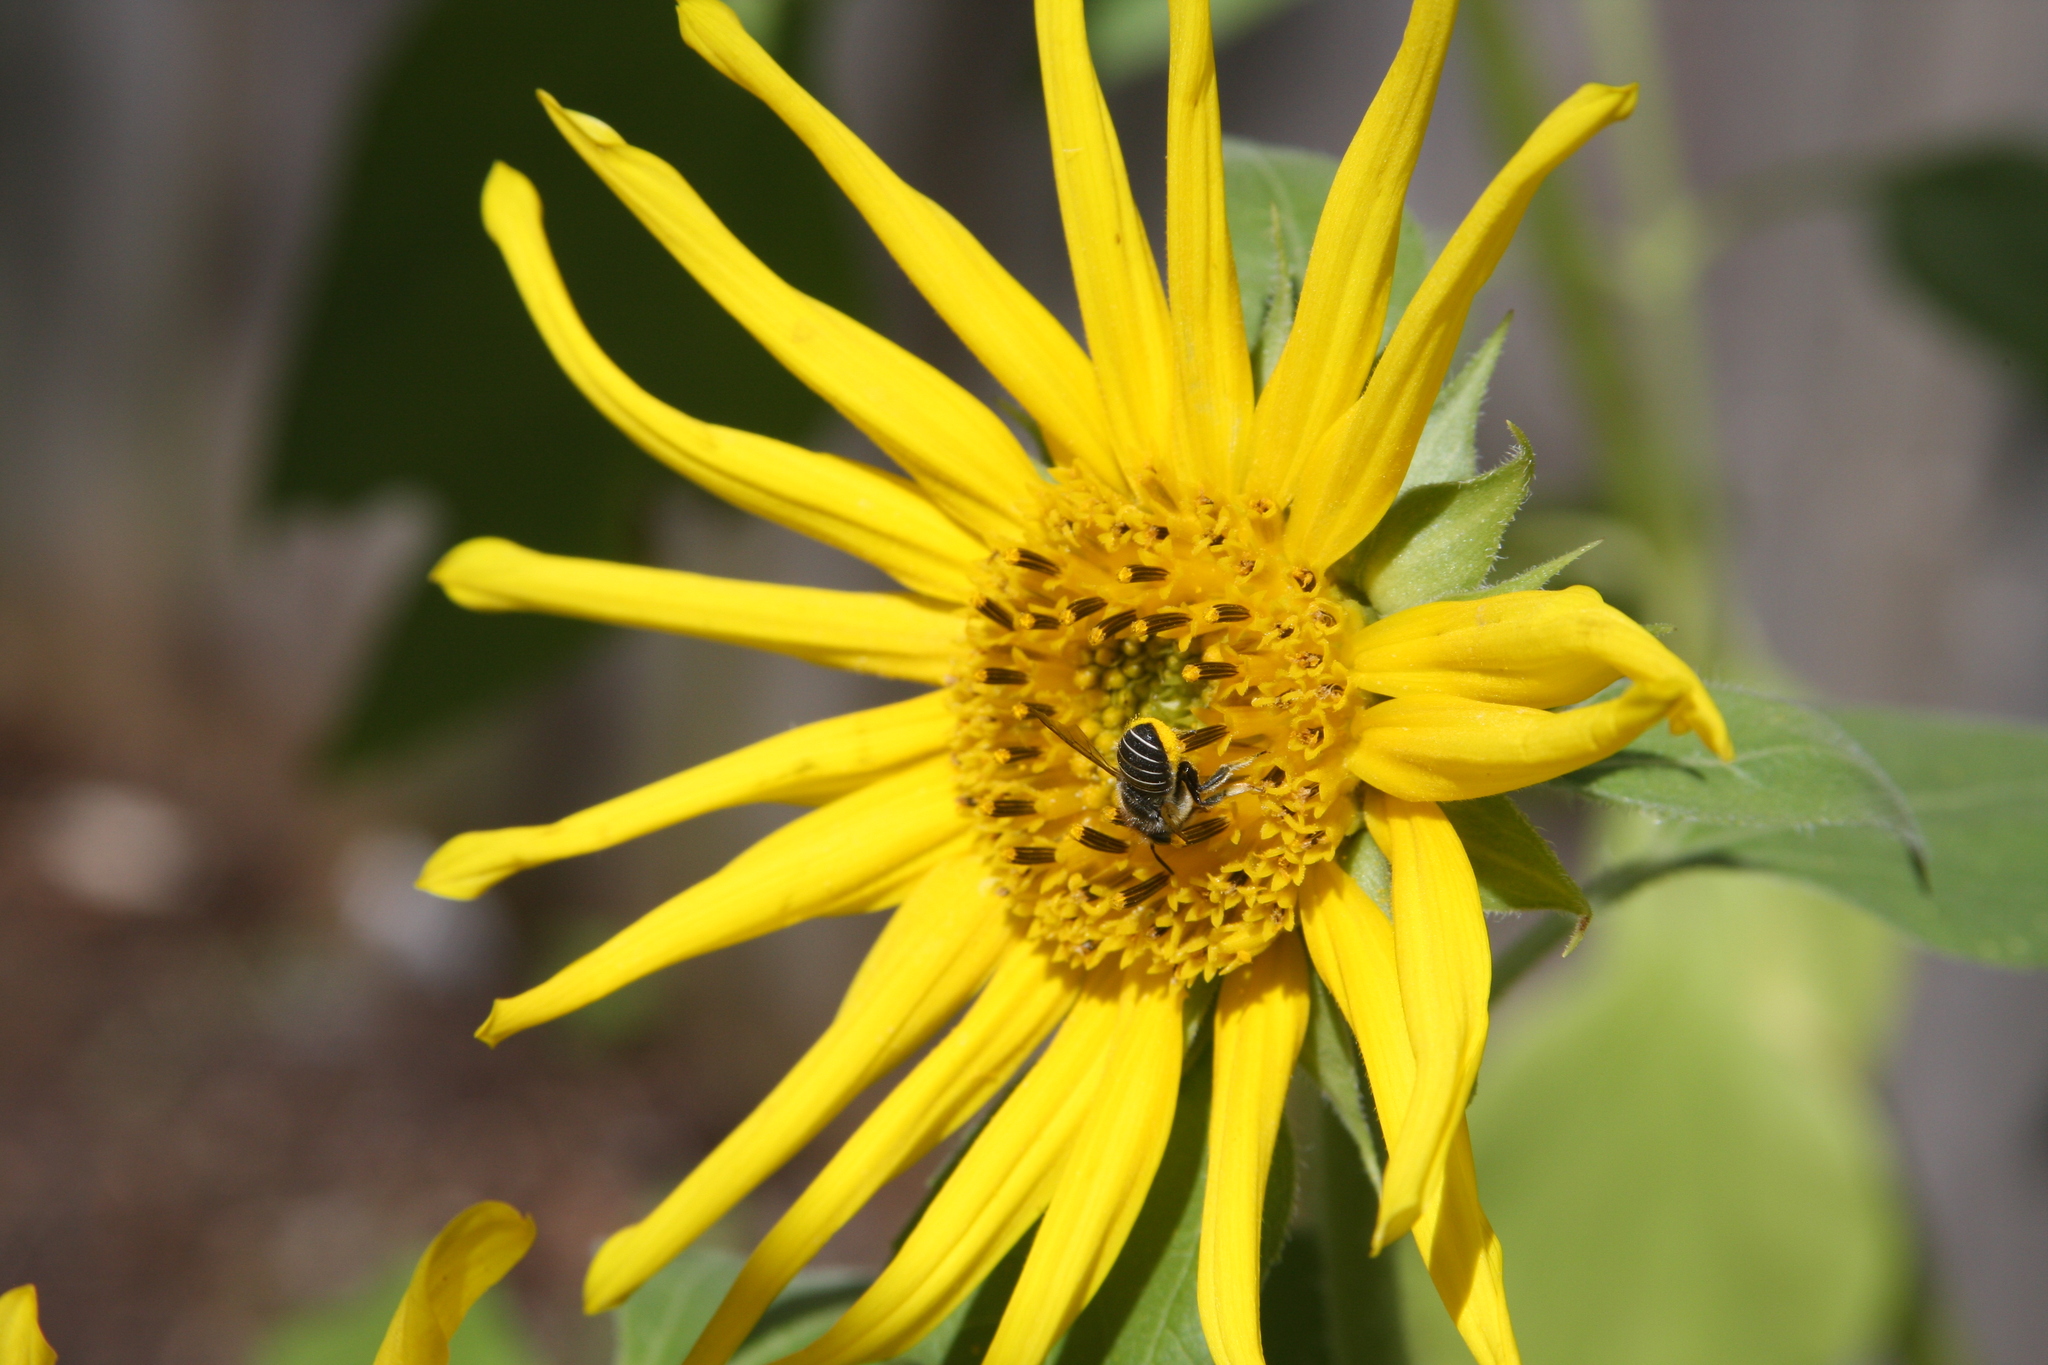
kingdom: Animalia
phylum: Arthropoda
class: Insecta
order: Hymenoptera
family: Megachilidae
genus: Pseudoanthidium
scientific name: Pseudoanthidium repetitum
